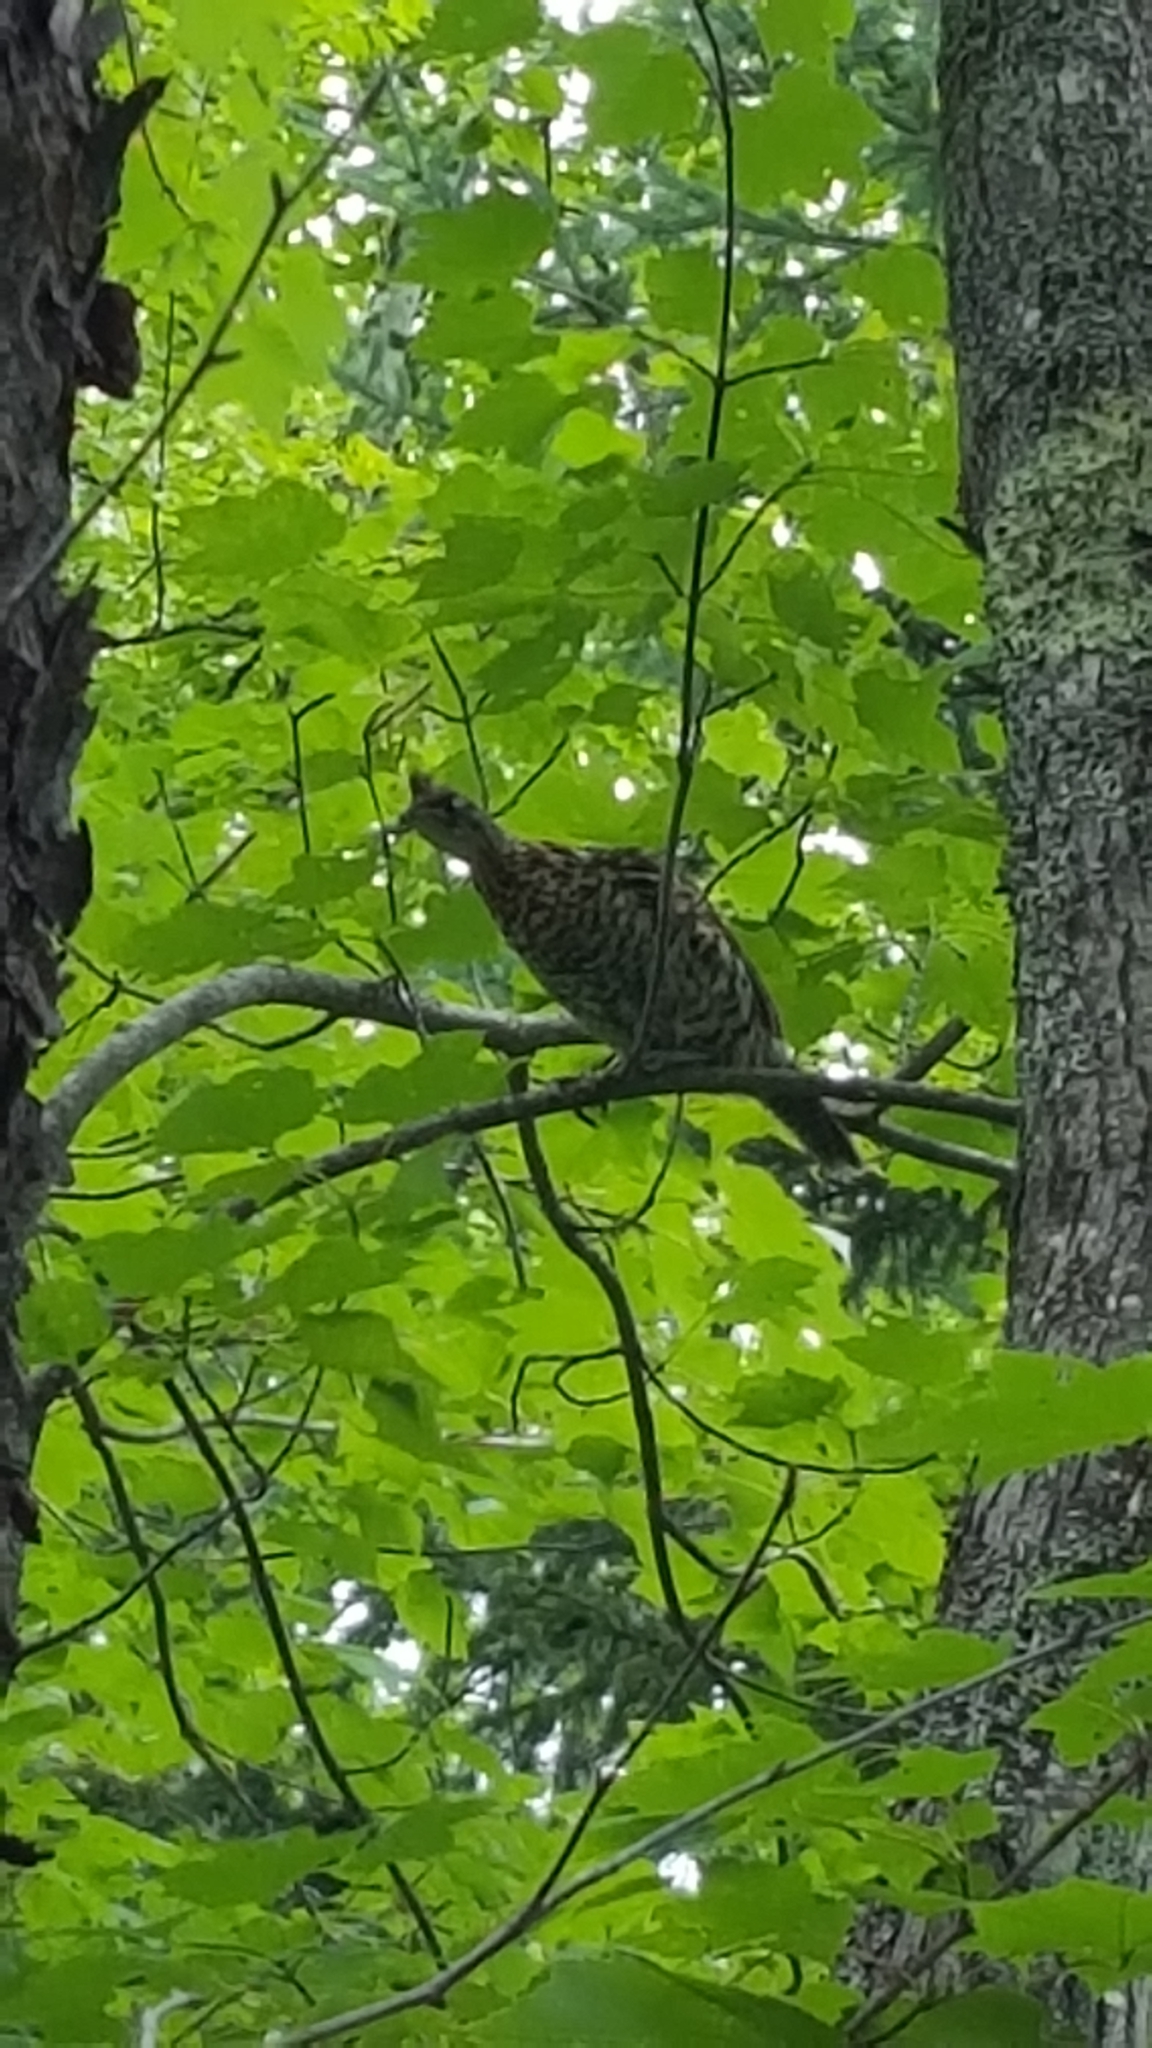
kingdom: Animalia
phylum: Chordata
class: Aves
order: Galliformes
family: Phasianidae
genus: Bonasa
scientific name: Bonasa umbellus
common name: Ruffed grouse
